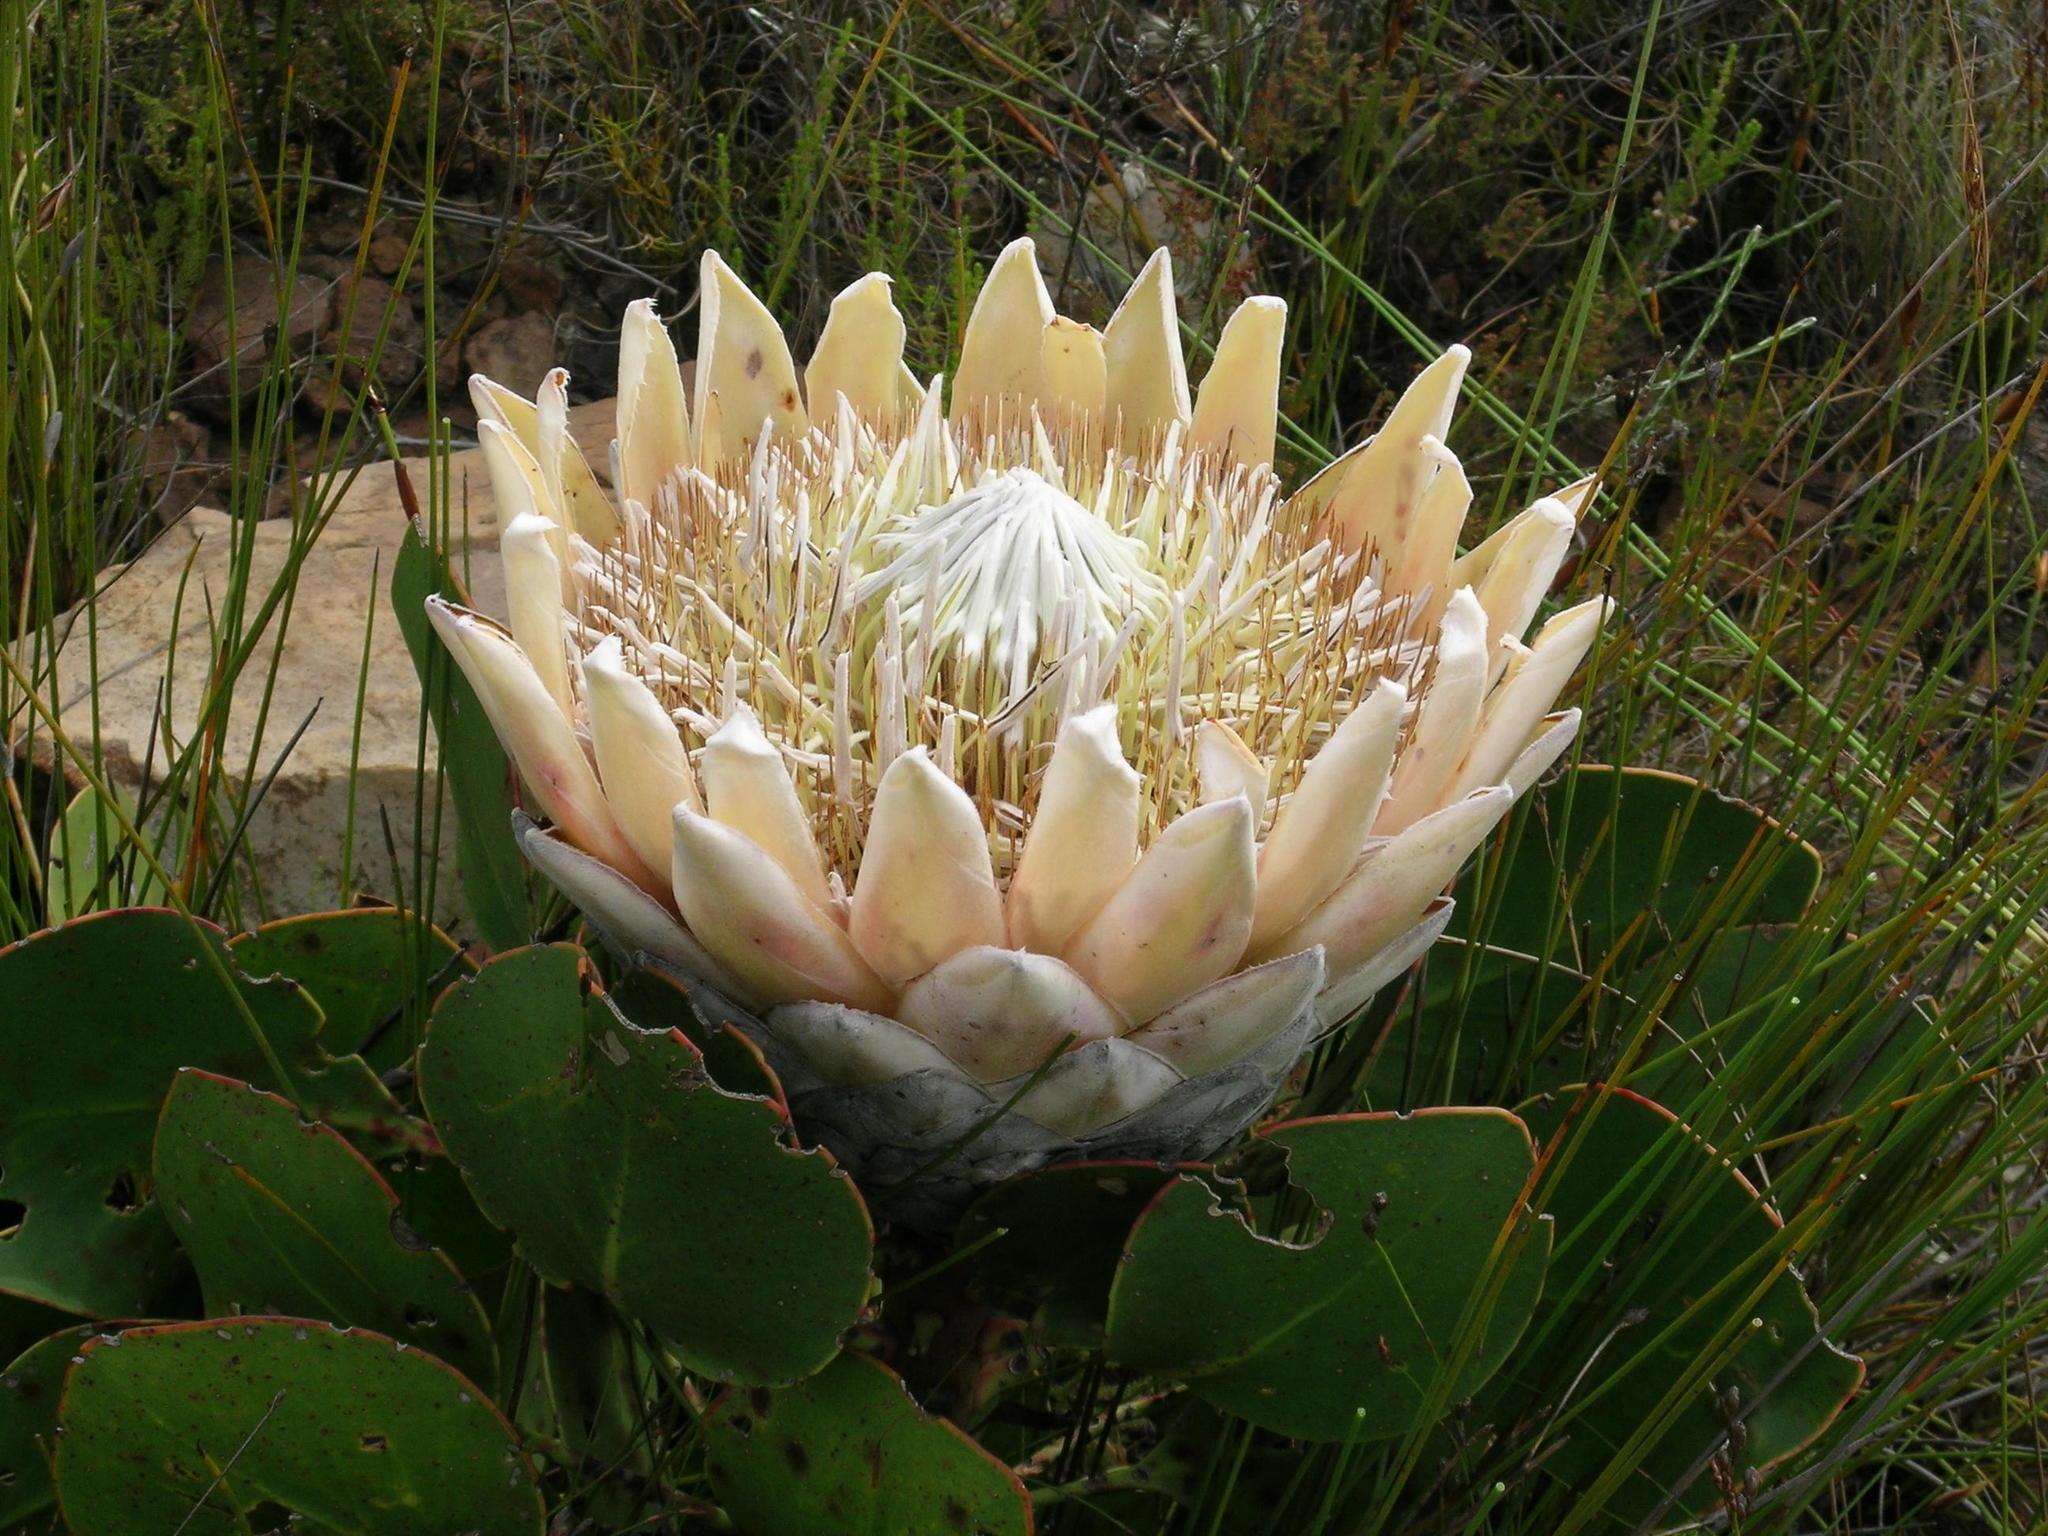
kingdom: Plantae
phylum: Tracheophyta
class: Magnoliopsida
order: Proteales
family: Proteaceae
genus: Protea
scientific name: Protea cynaroides
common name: King protea
